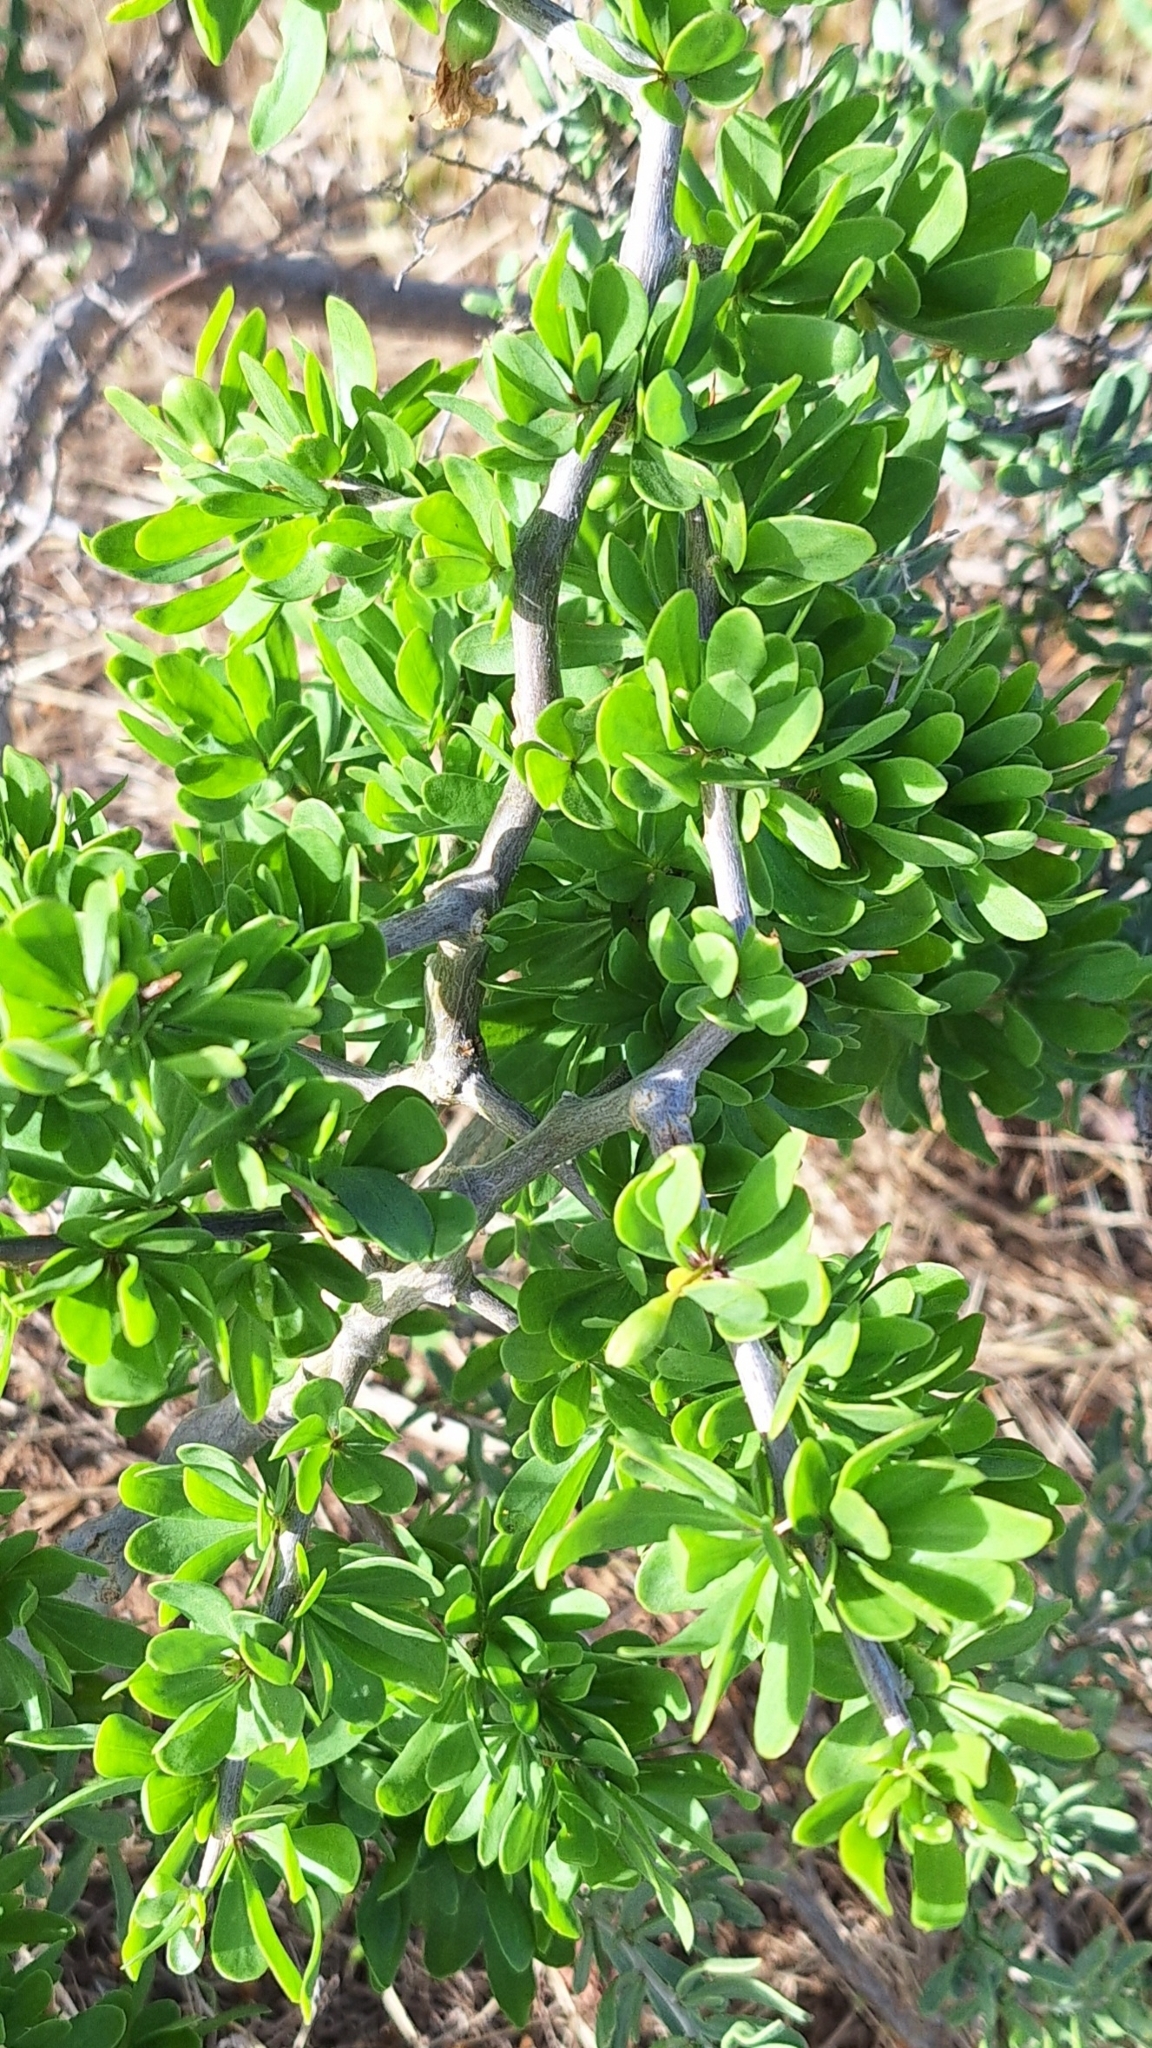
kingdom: Plantae
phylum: Tracheophyta
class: Magnoliopsida
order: Solanales
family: Solanaceae
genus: Lycium
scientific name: Lycium ferocissimum
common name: African boxthorn
